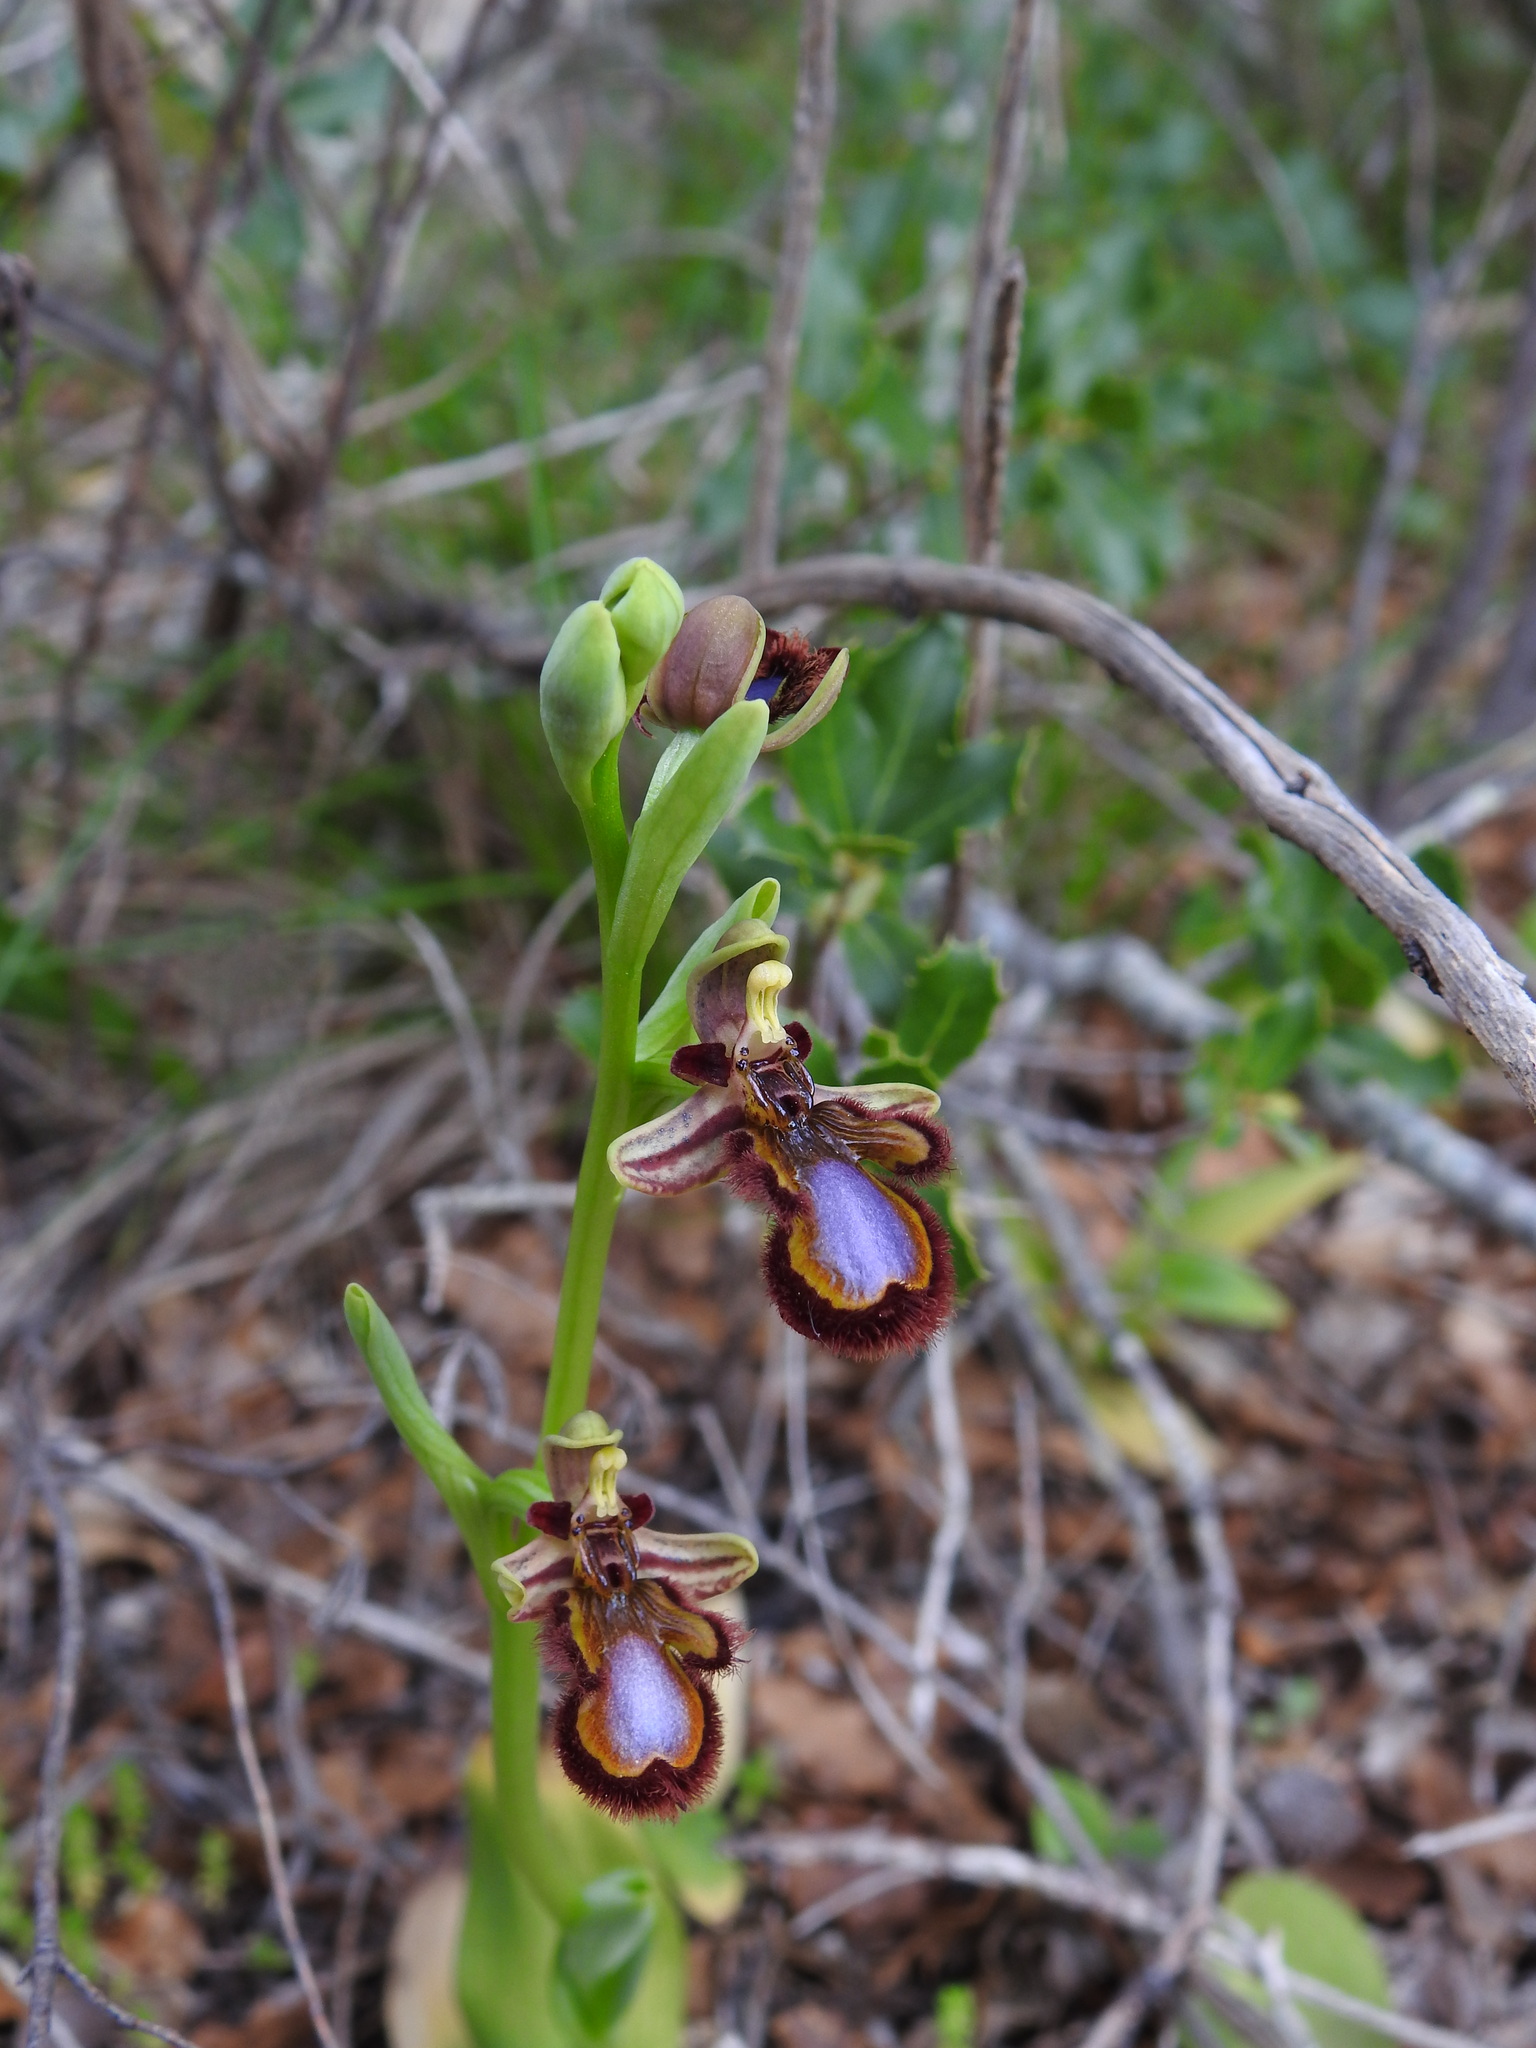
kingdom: Plantae
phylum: Tracheophyta
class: Liliopsida
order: Asparagales
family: Orchidaceae
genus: Ophrys
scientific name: Ophrys speculum
